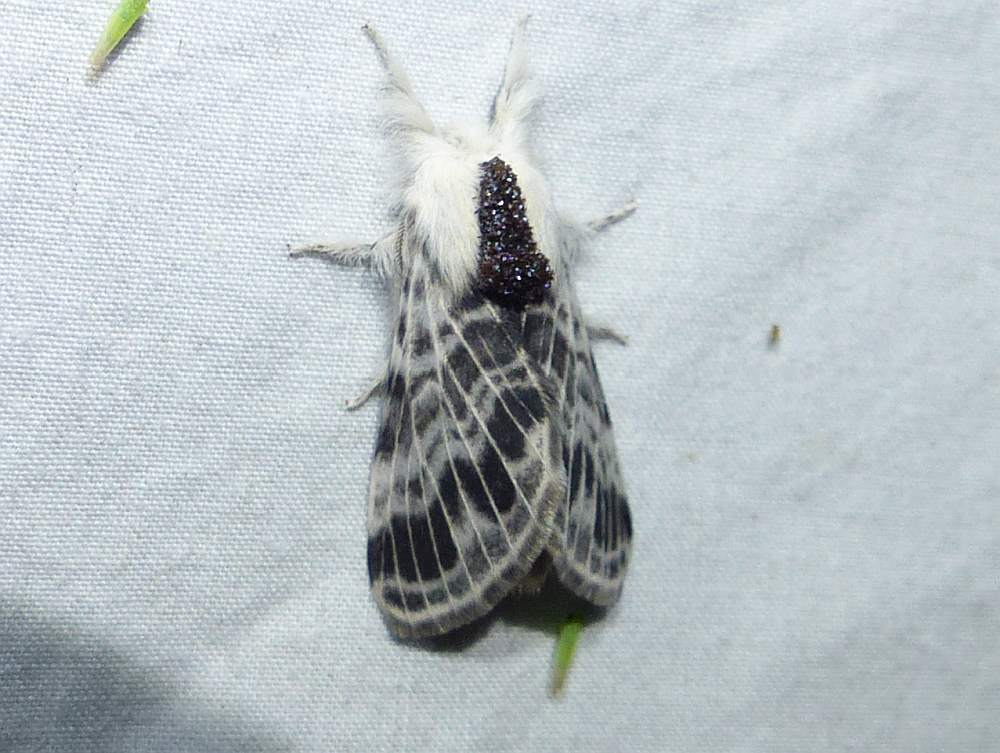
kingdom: Animalia
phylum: Arthropoda
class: Insecta
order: Lepidoptera
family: Lasiocampidae
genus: Tolype
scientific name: Tolype velleda
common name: Large tolype moth
